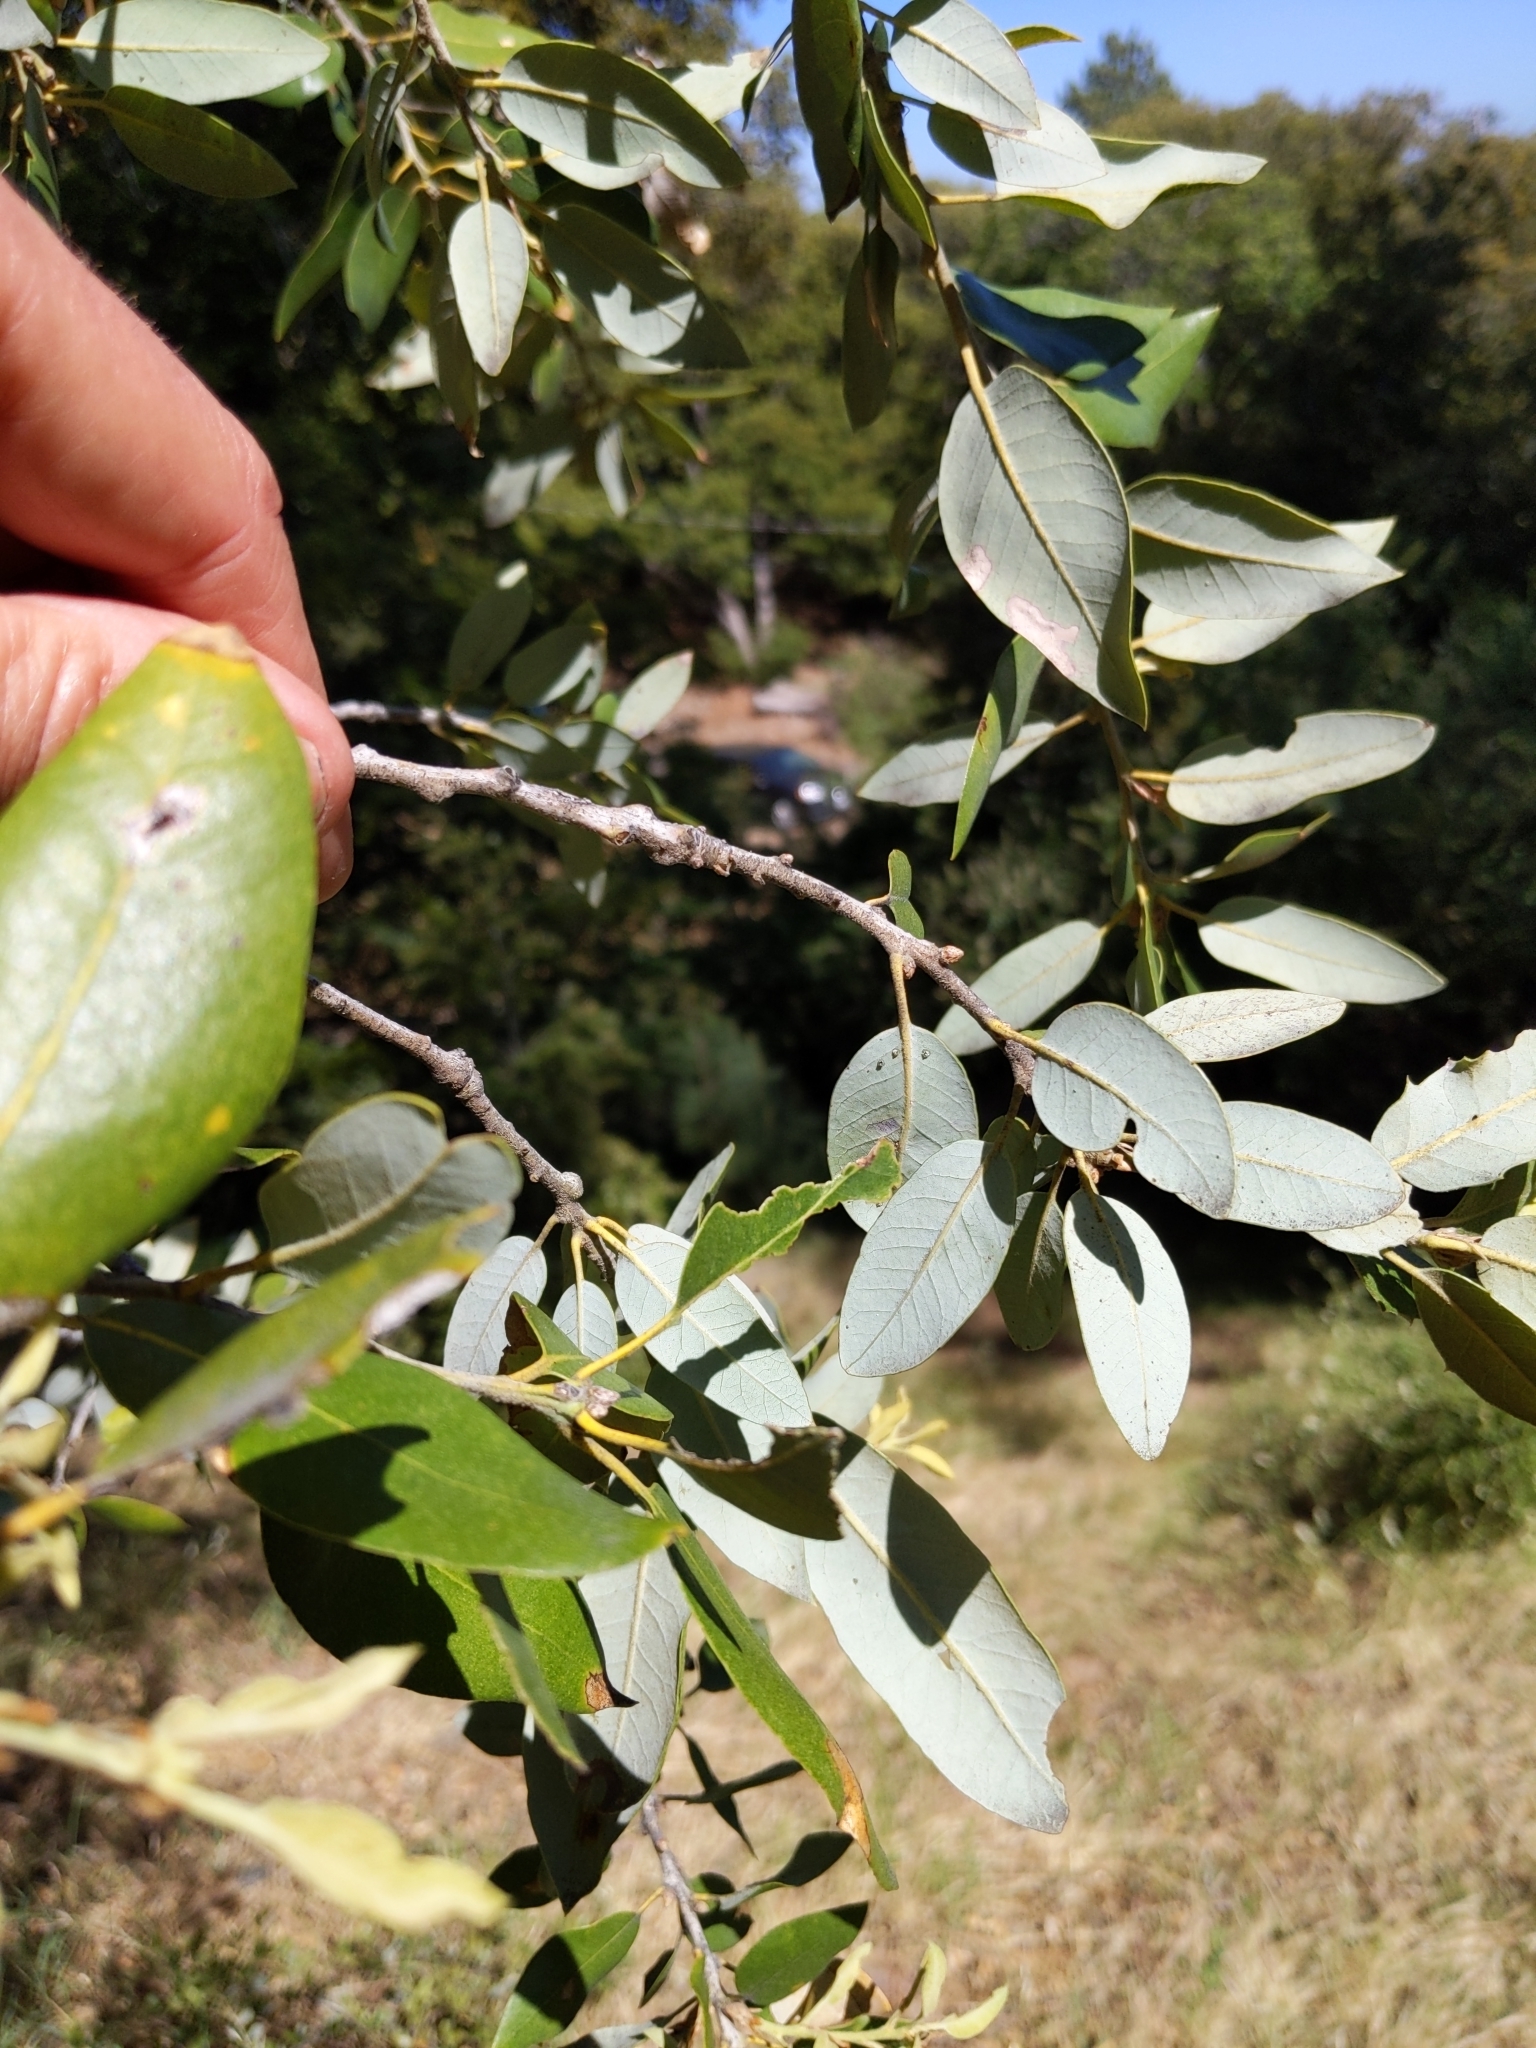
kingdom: Plantae
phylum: Tracheophyta
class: Magnoliopsida
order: Fagales
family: Fagaceae
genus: Quercus
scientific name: Quercus chrysolepis
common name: Canyon live oak
